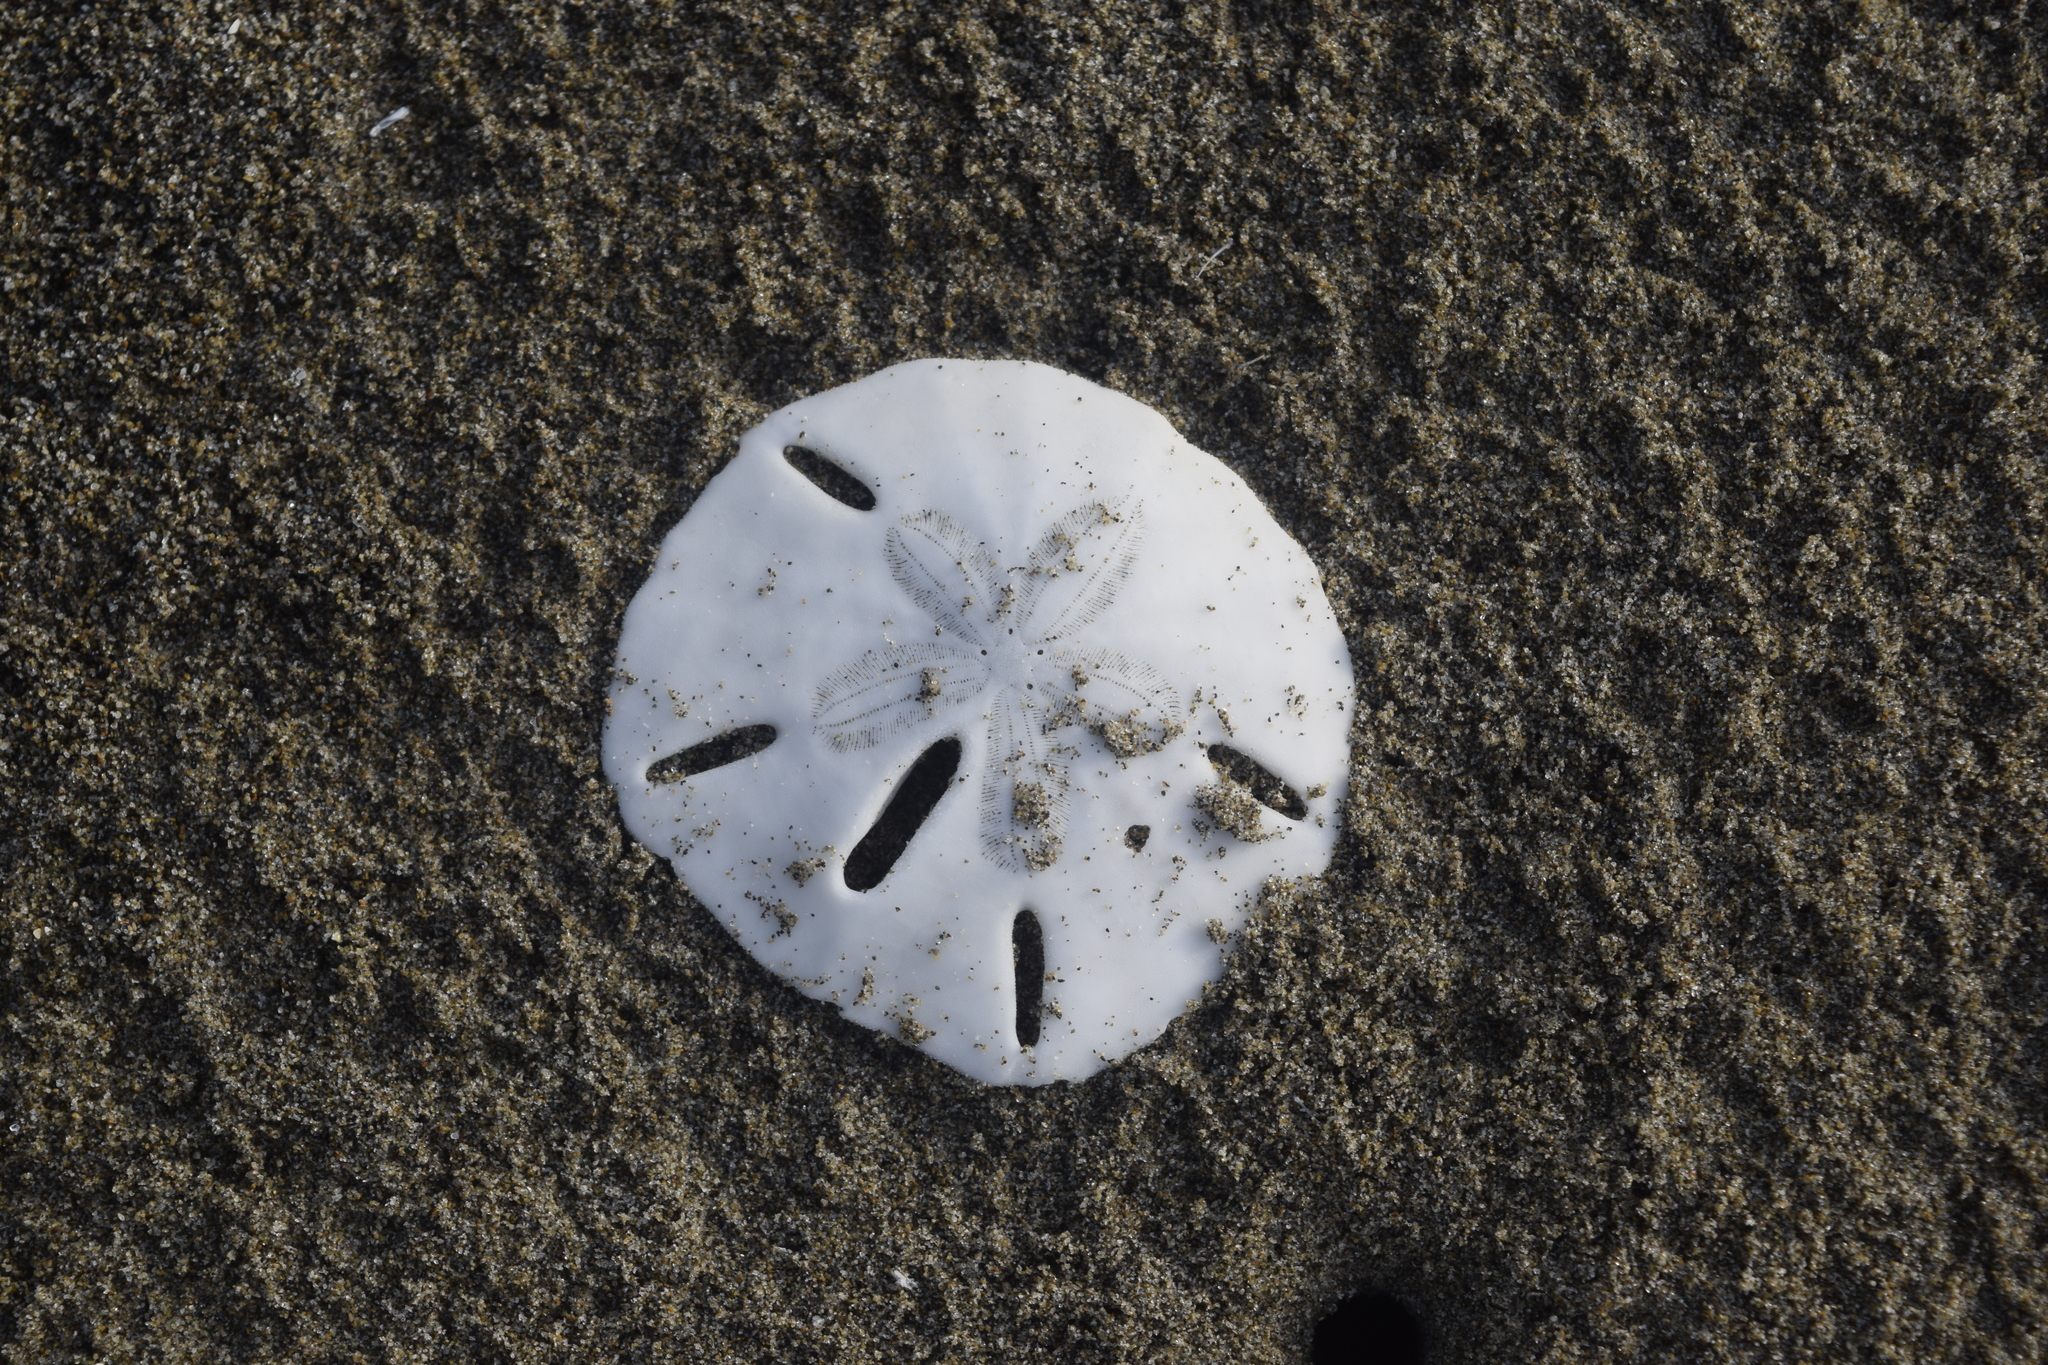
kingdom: Animalia
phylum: Echinodermata
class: Echinoidea
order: Echinolampadacea
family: Mellitidae
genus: Mellita
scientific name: Mellita quinquiesperforata
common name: Sand dollar
